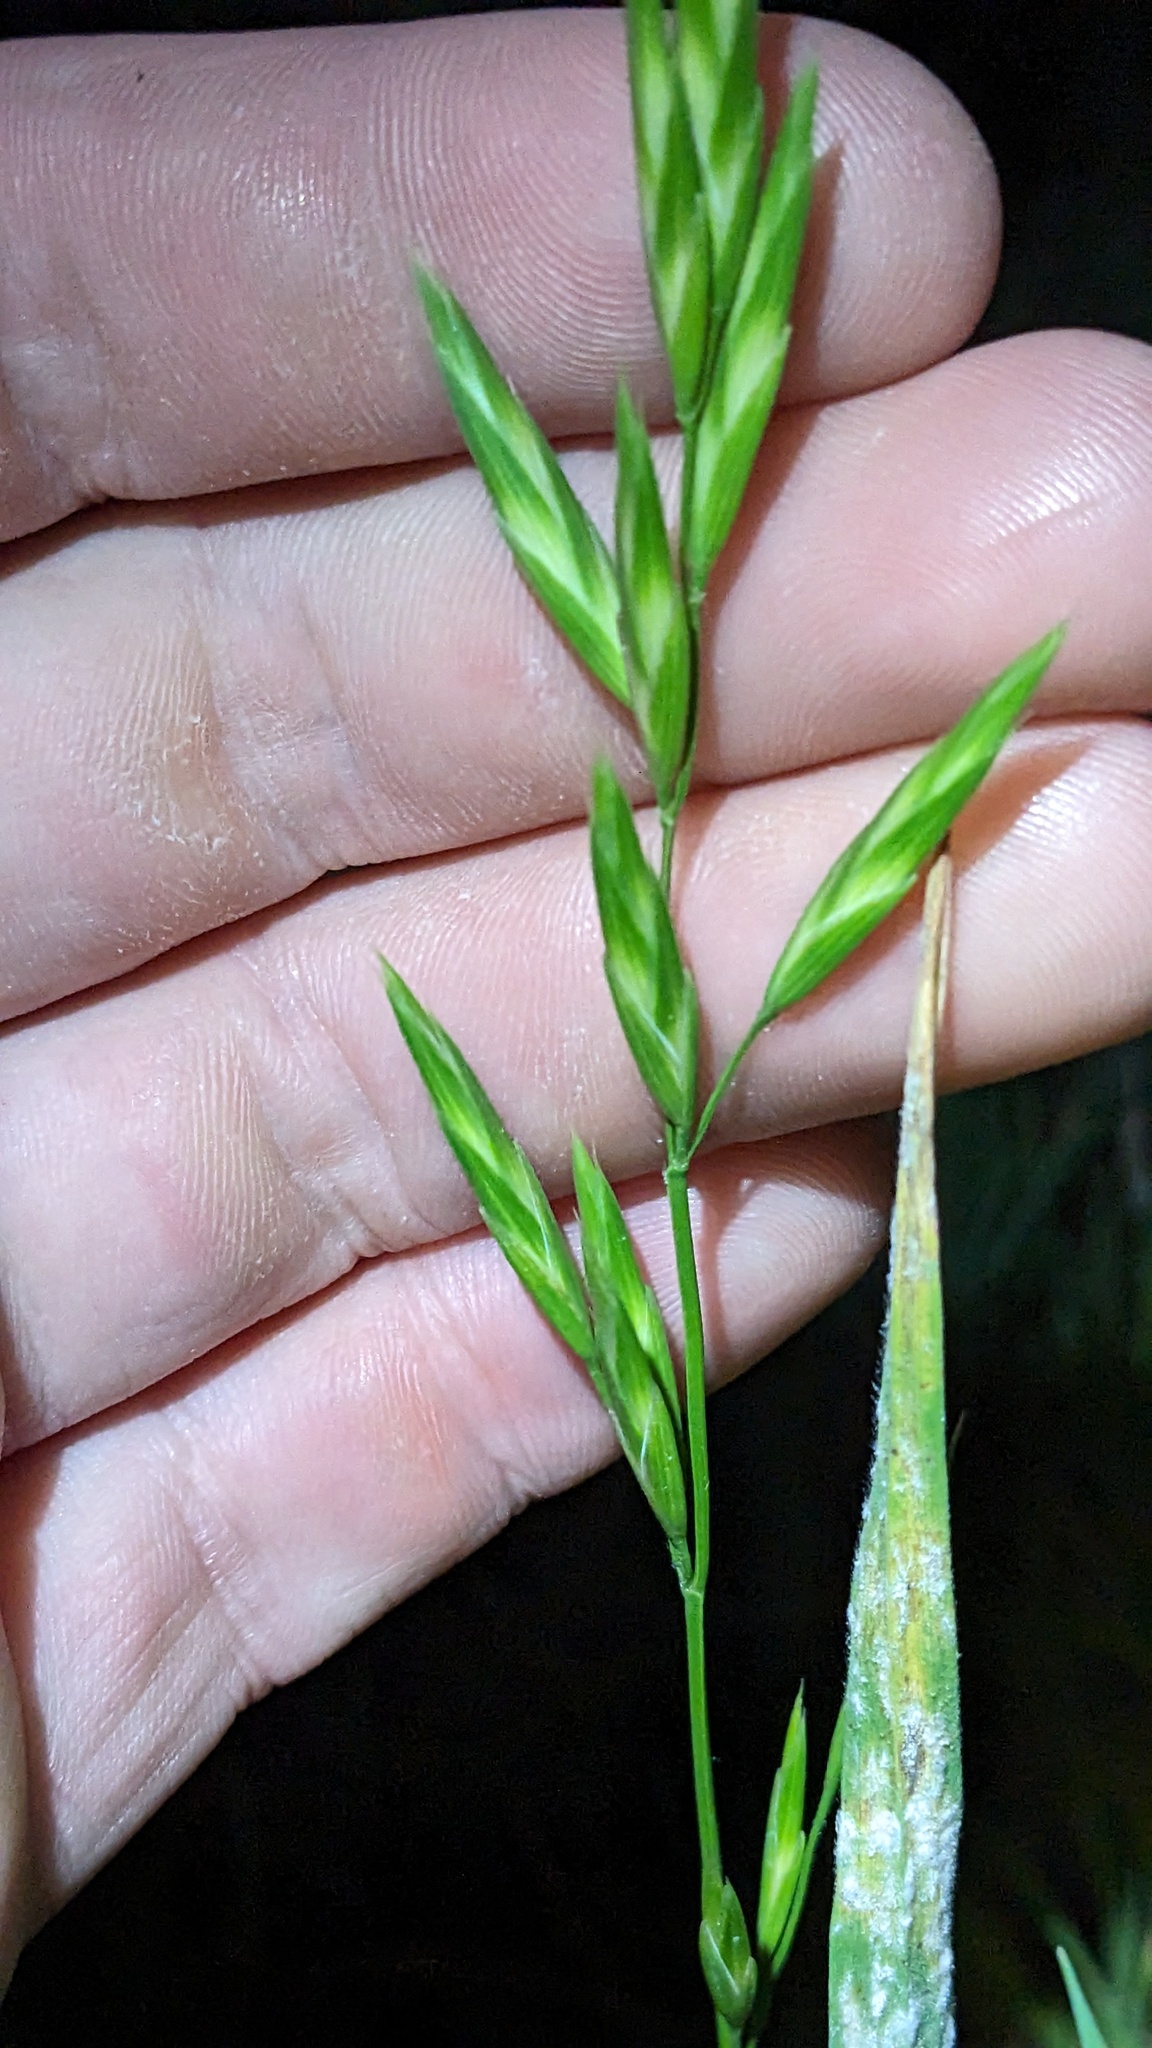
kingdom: Plantae
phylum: Tracheophyta
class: Liliopsida
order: Poales
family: Poaceae
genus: Bromus
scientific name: Bromus catharticus
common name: Rescuegrass
